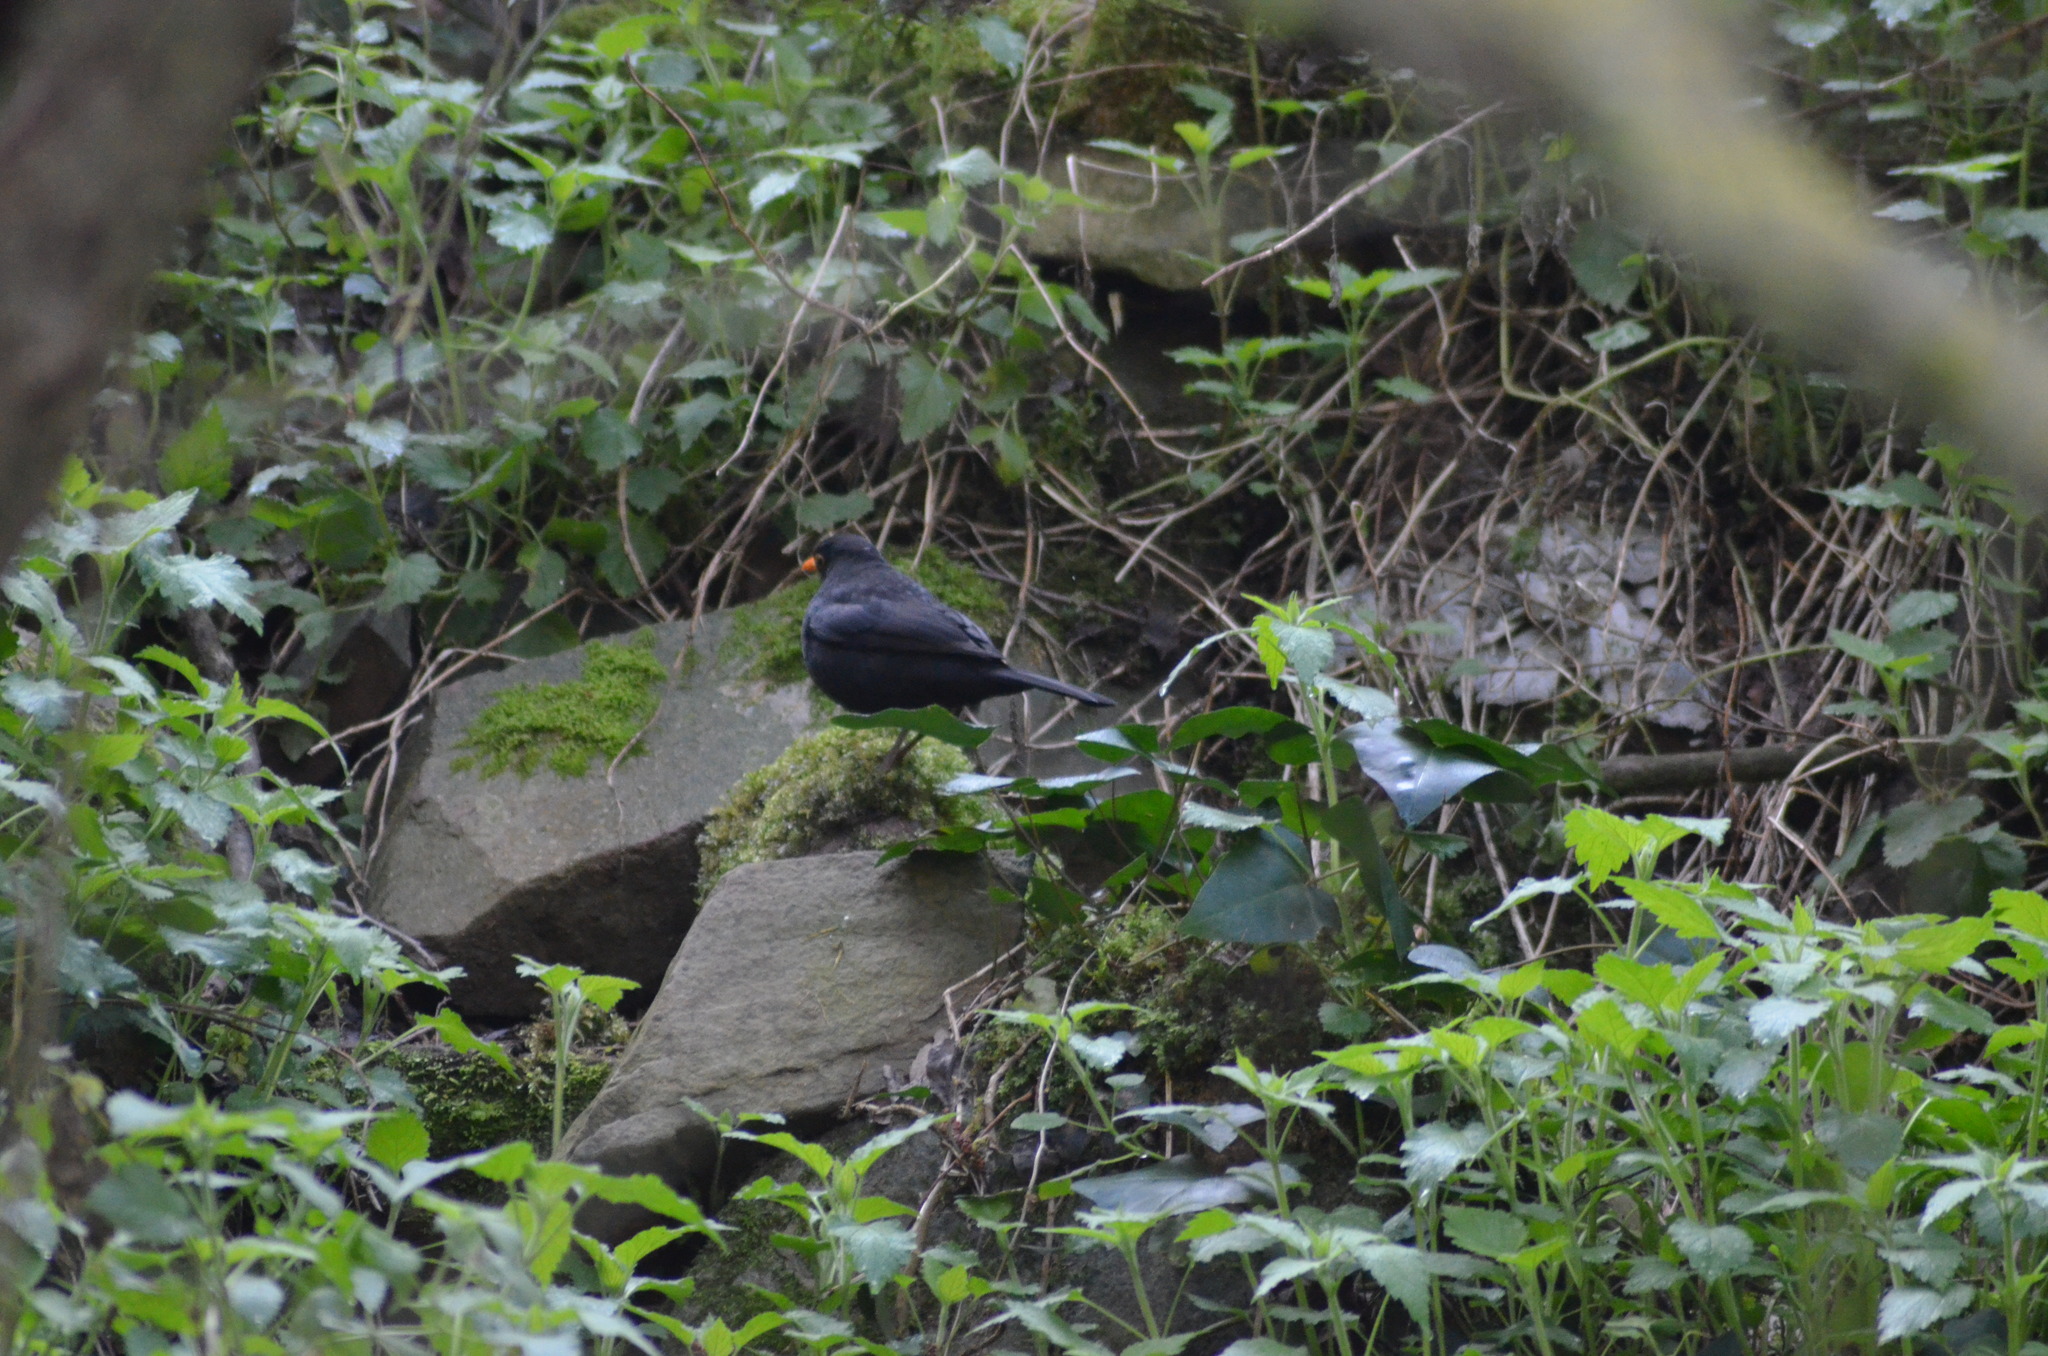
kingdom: Animalia
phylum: Chordata
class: Aves
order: Passeriformes
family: Turdidae
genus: Turdus
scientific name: Turdus merula
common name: Common blackbird
